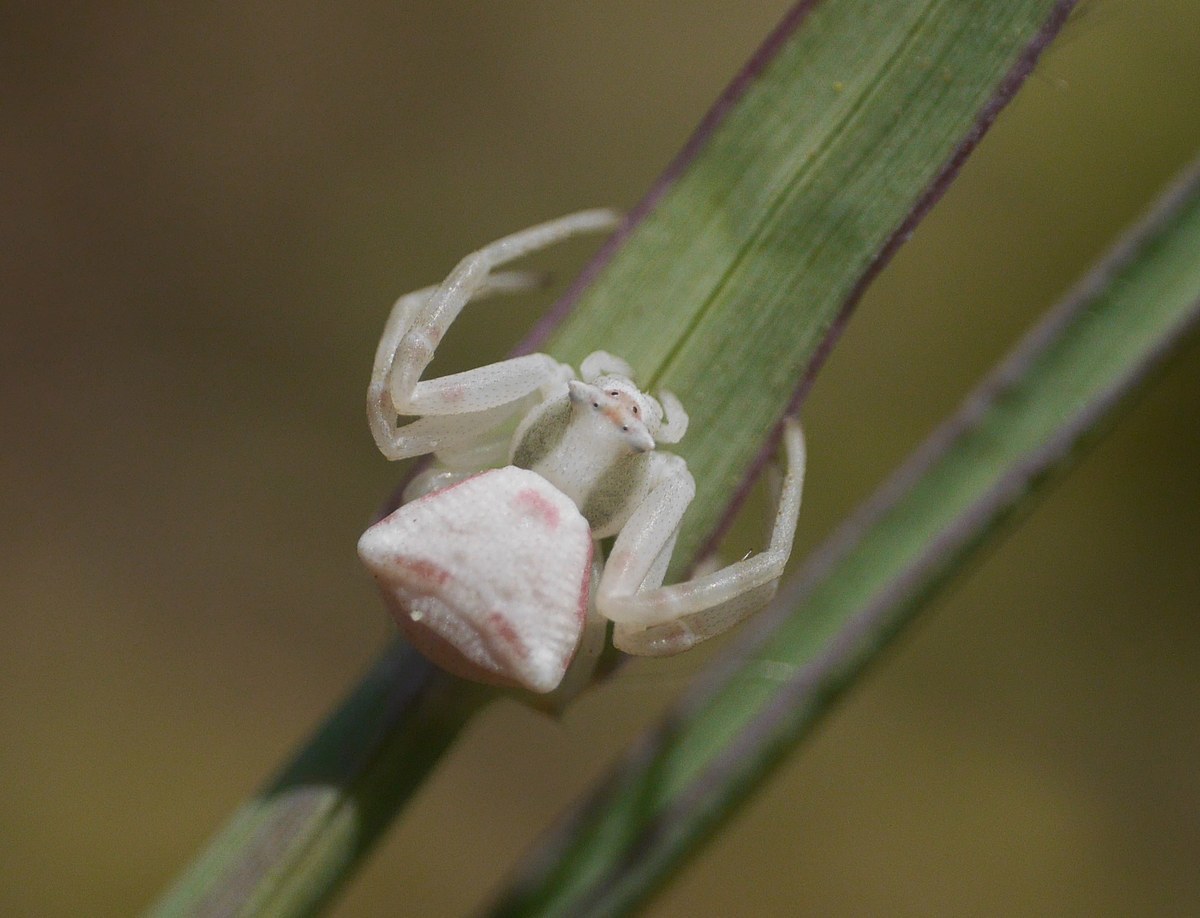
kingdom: Animalia
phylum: Arthropoda
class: Arachnida
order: Araneae
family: Thomisidae
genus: Thomisus
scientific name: Thomisus onustus
